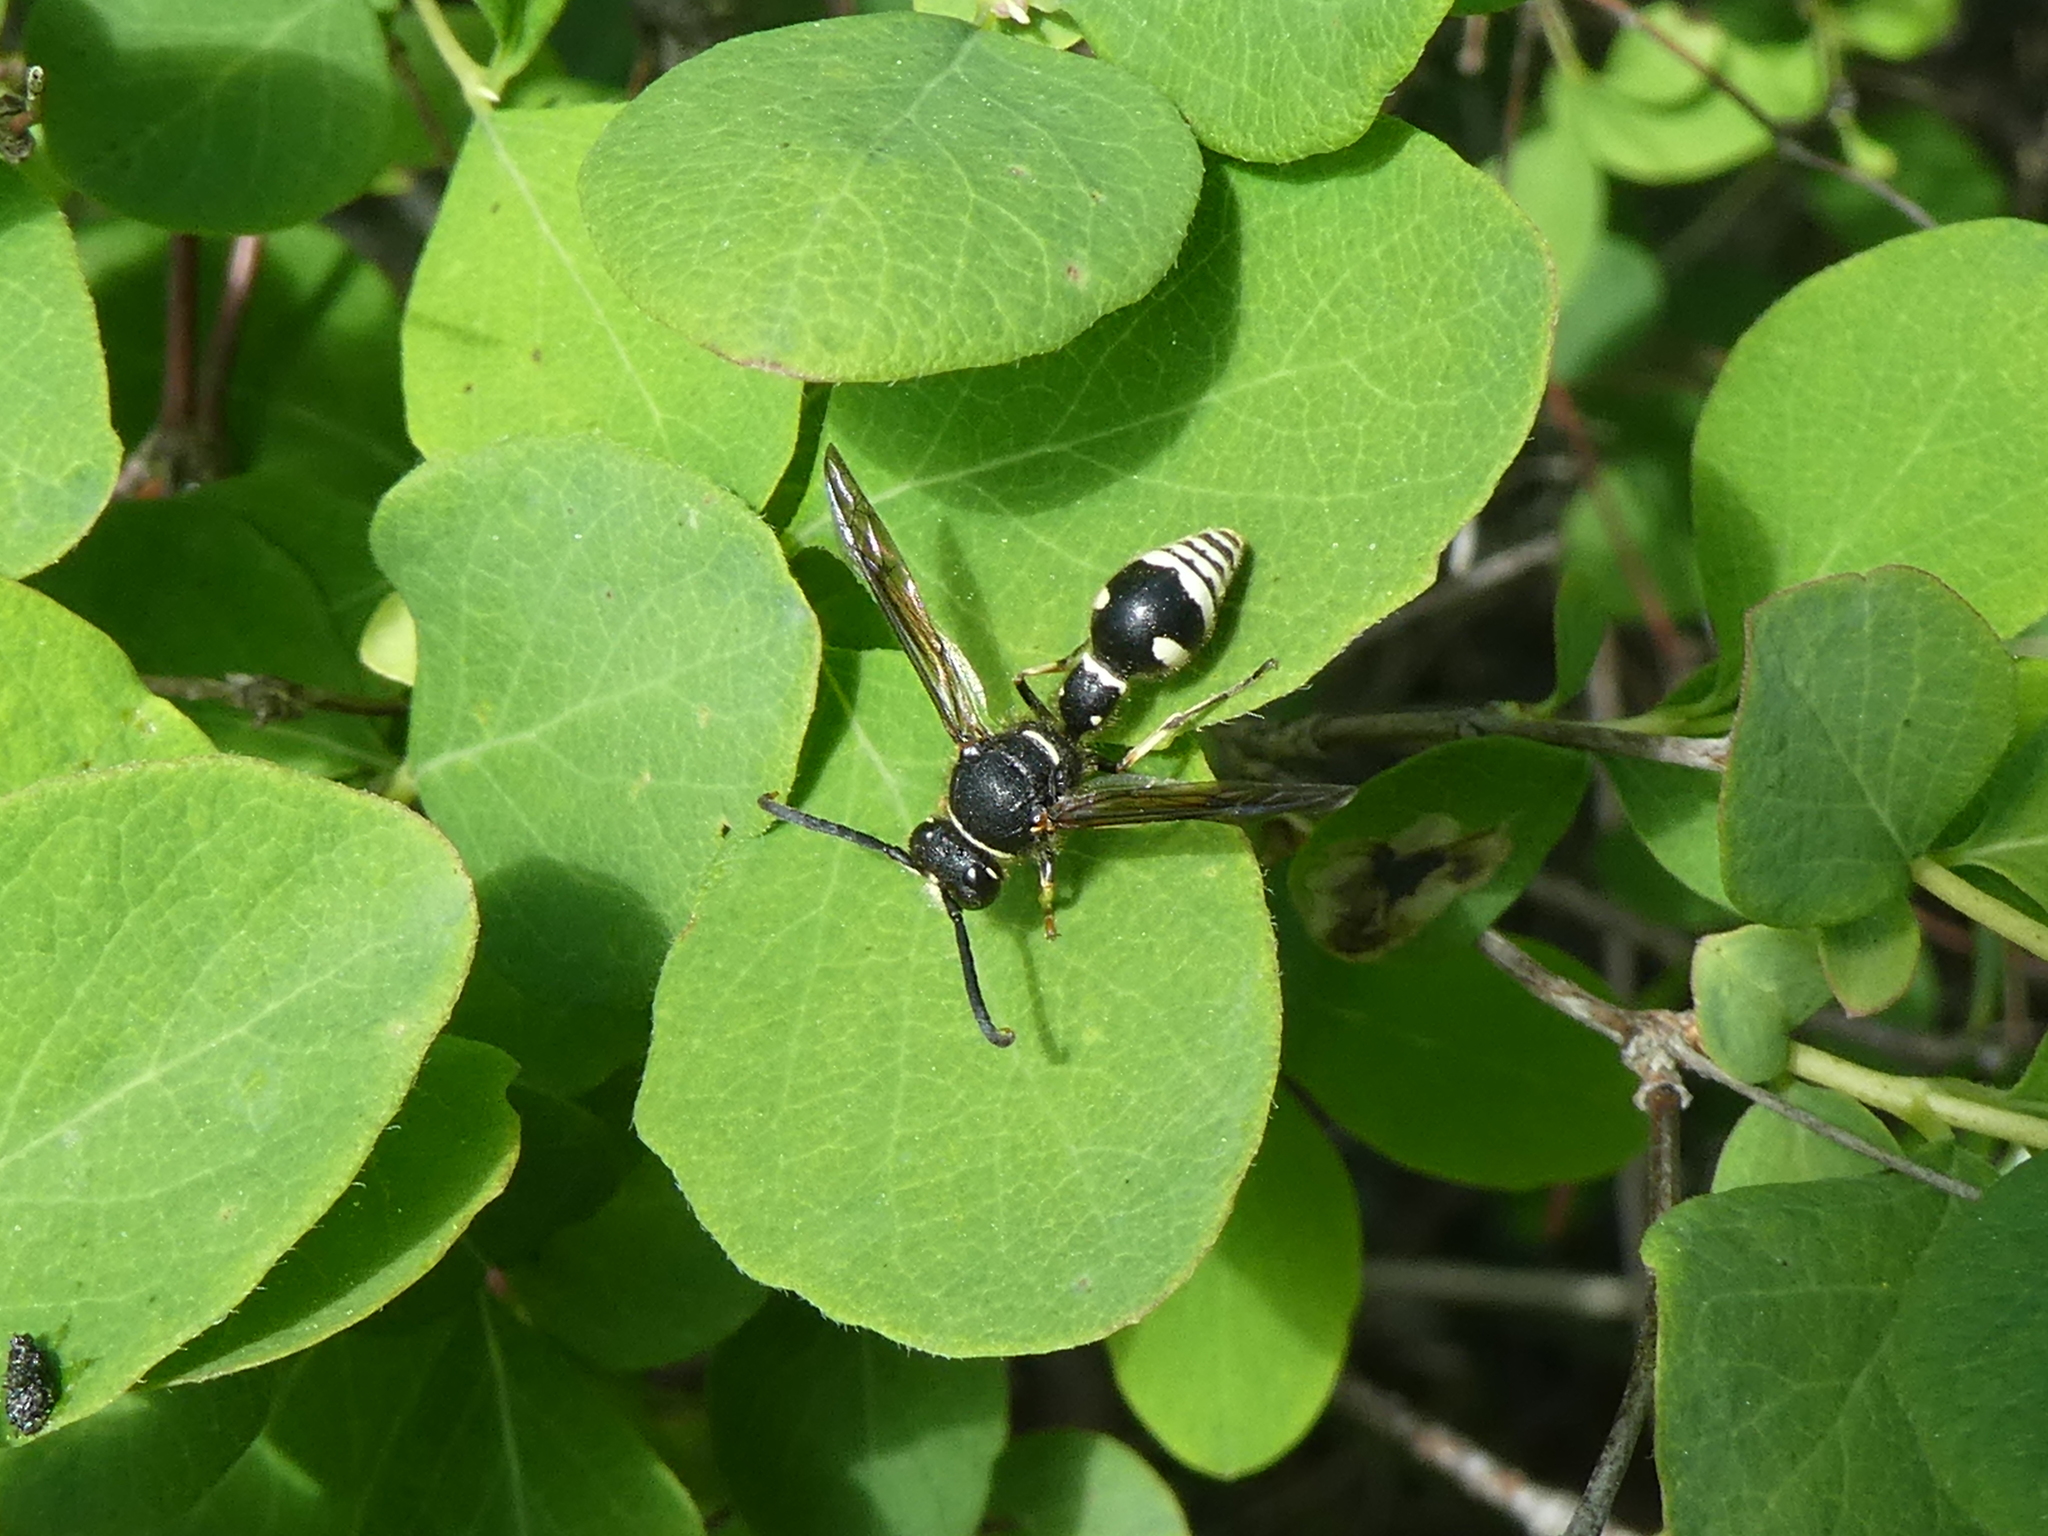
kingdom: Animalia
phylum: Arthropoda
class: Insecta
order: Hymenoptera
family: Vespidae
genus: Eumenes
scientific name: Eumenes crucifera
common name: Cross potter wasp
